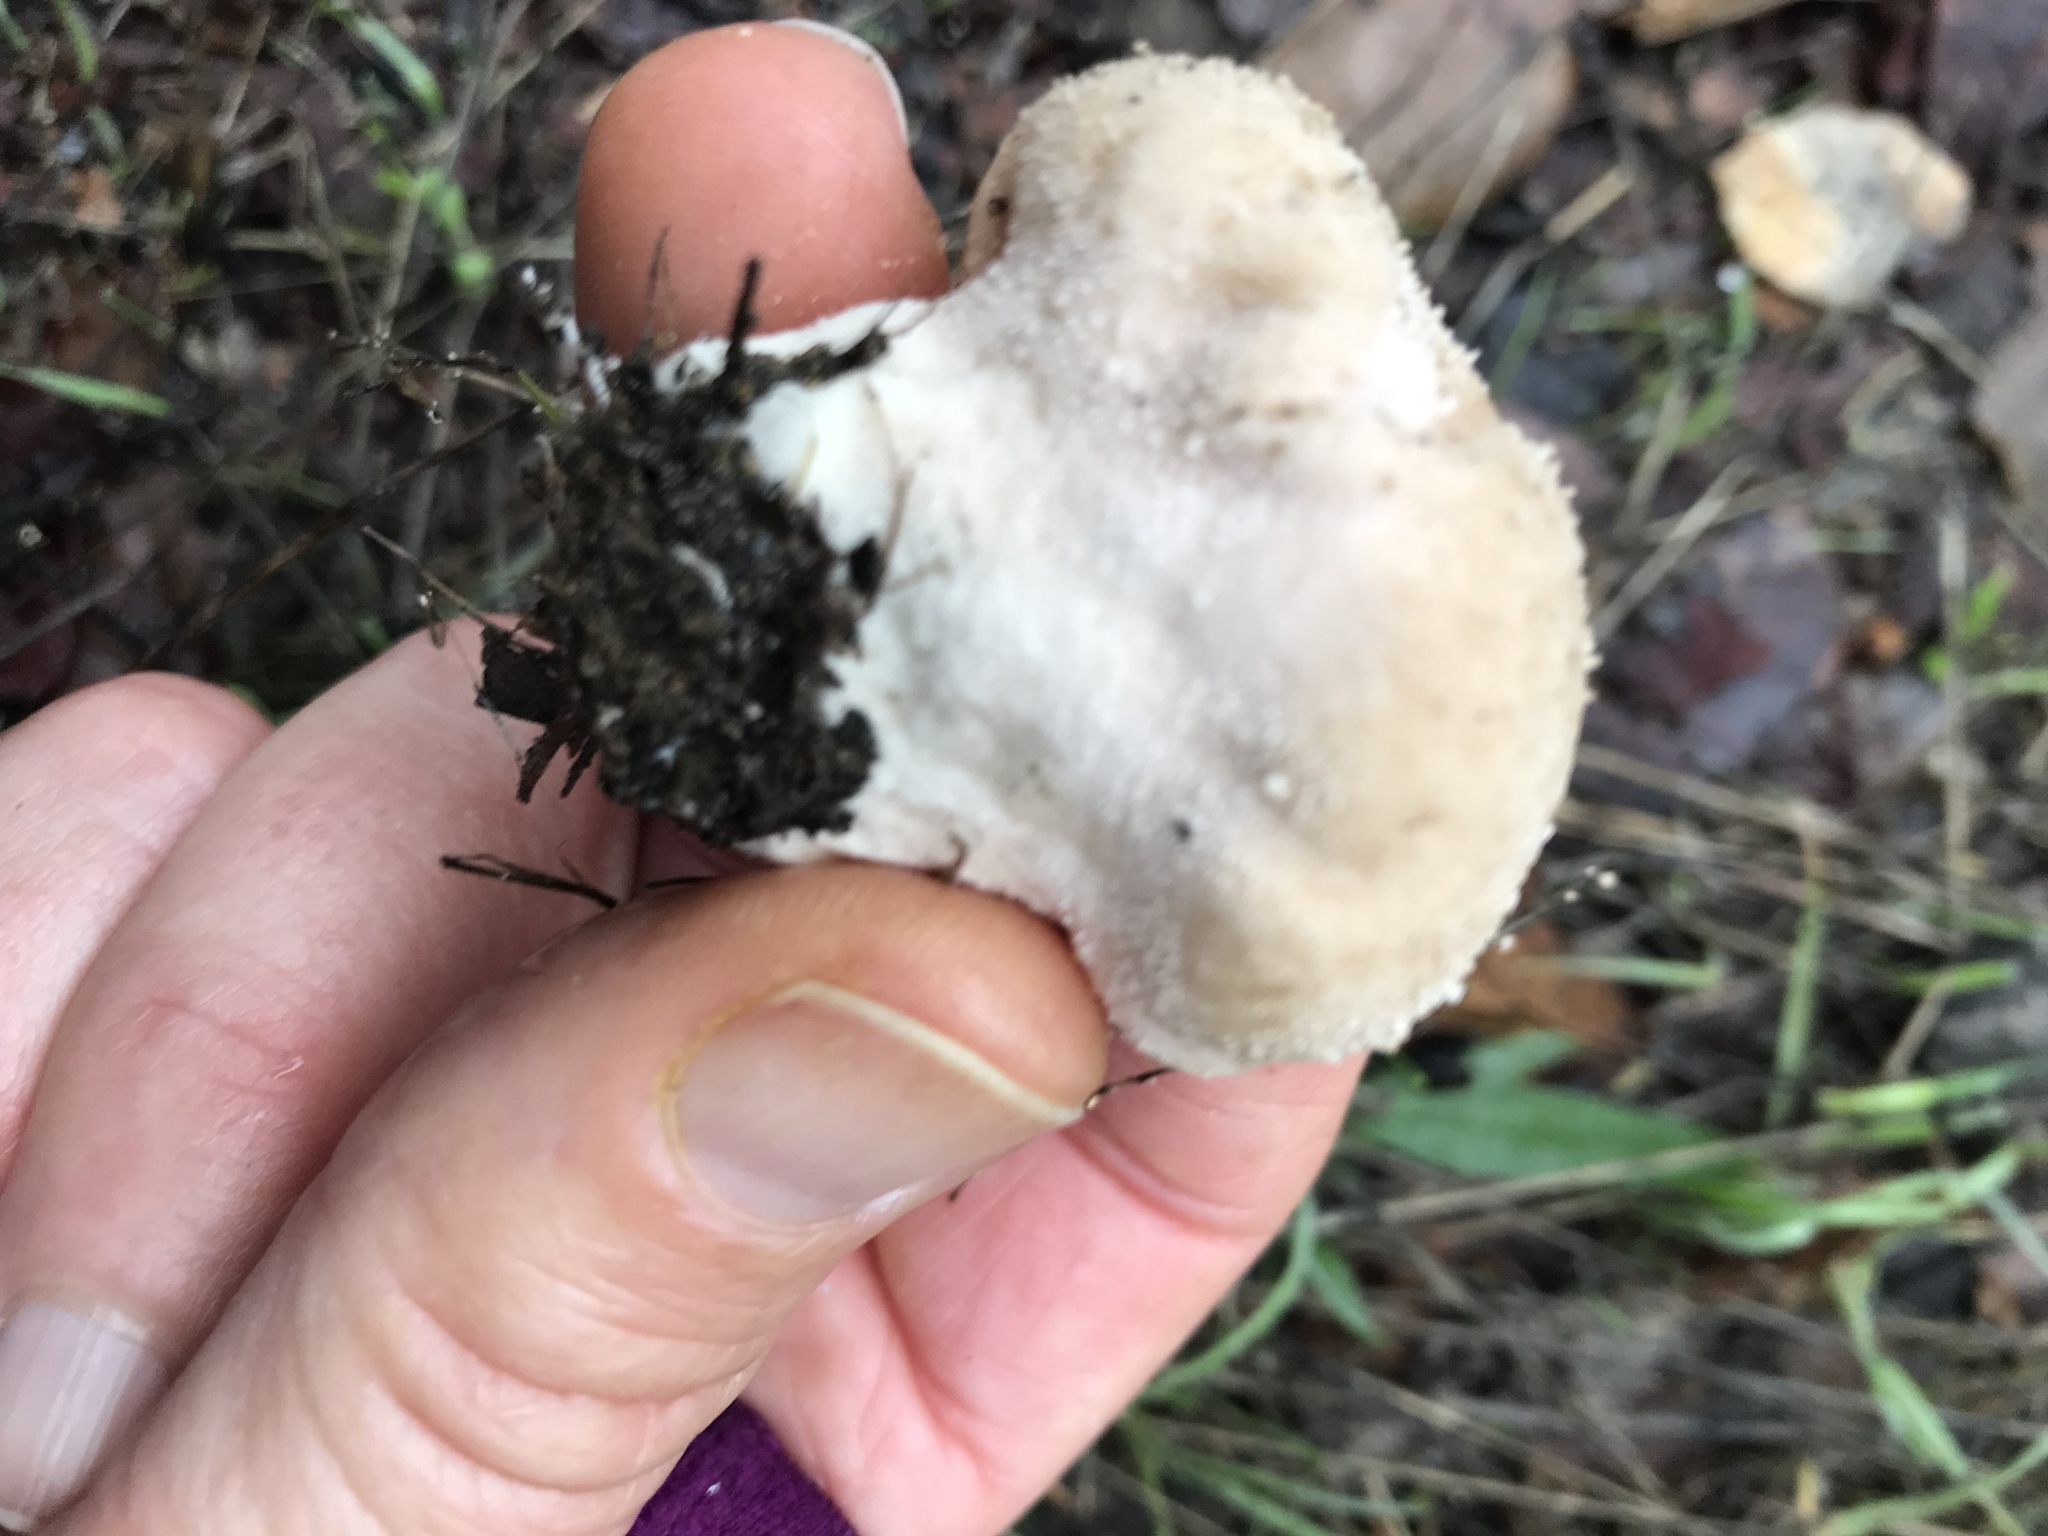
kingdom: Fungi
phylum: Basidiomycota
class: Agaricomycetes
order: Agaricales
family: Lycoperdaceae
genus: Lycoperdon
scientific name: Lycoperdon perlatum
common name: Common puffball
